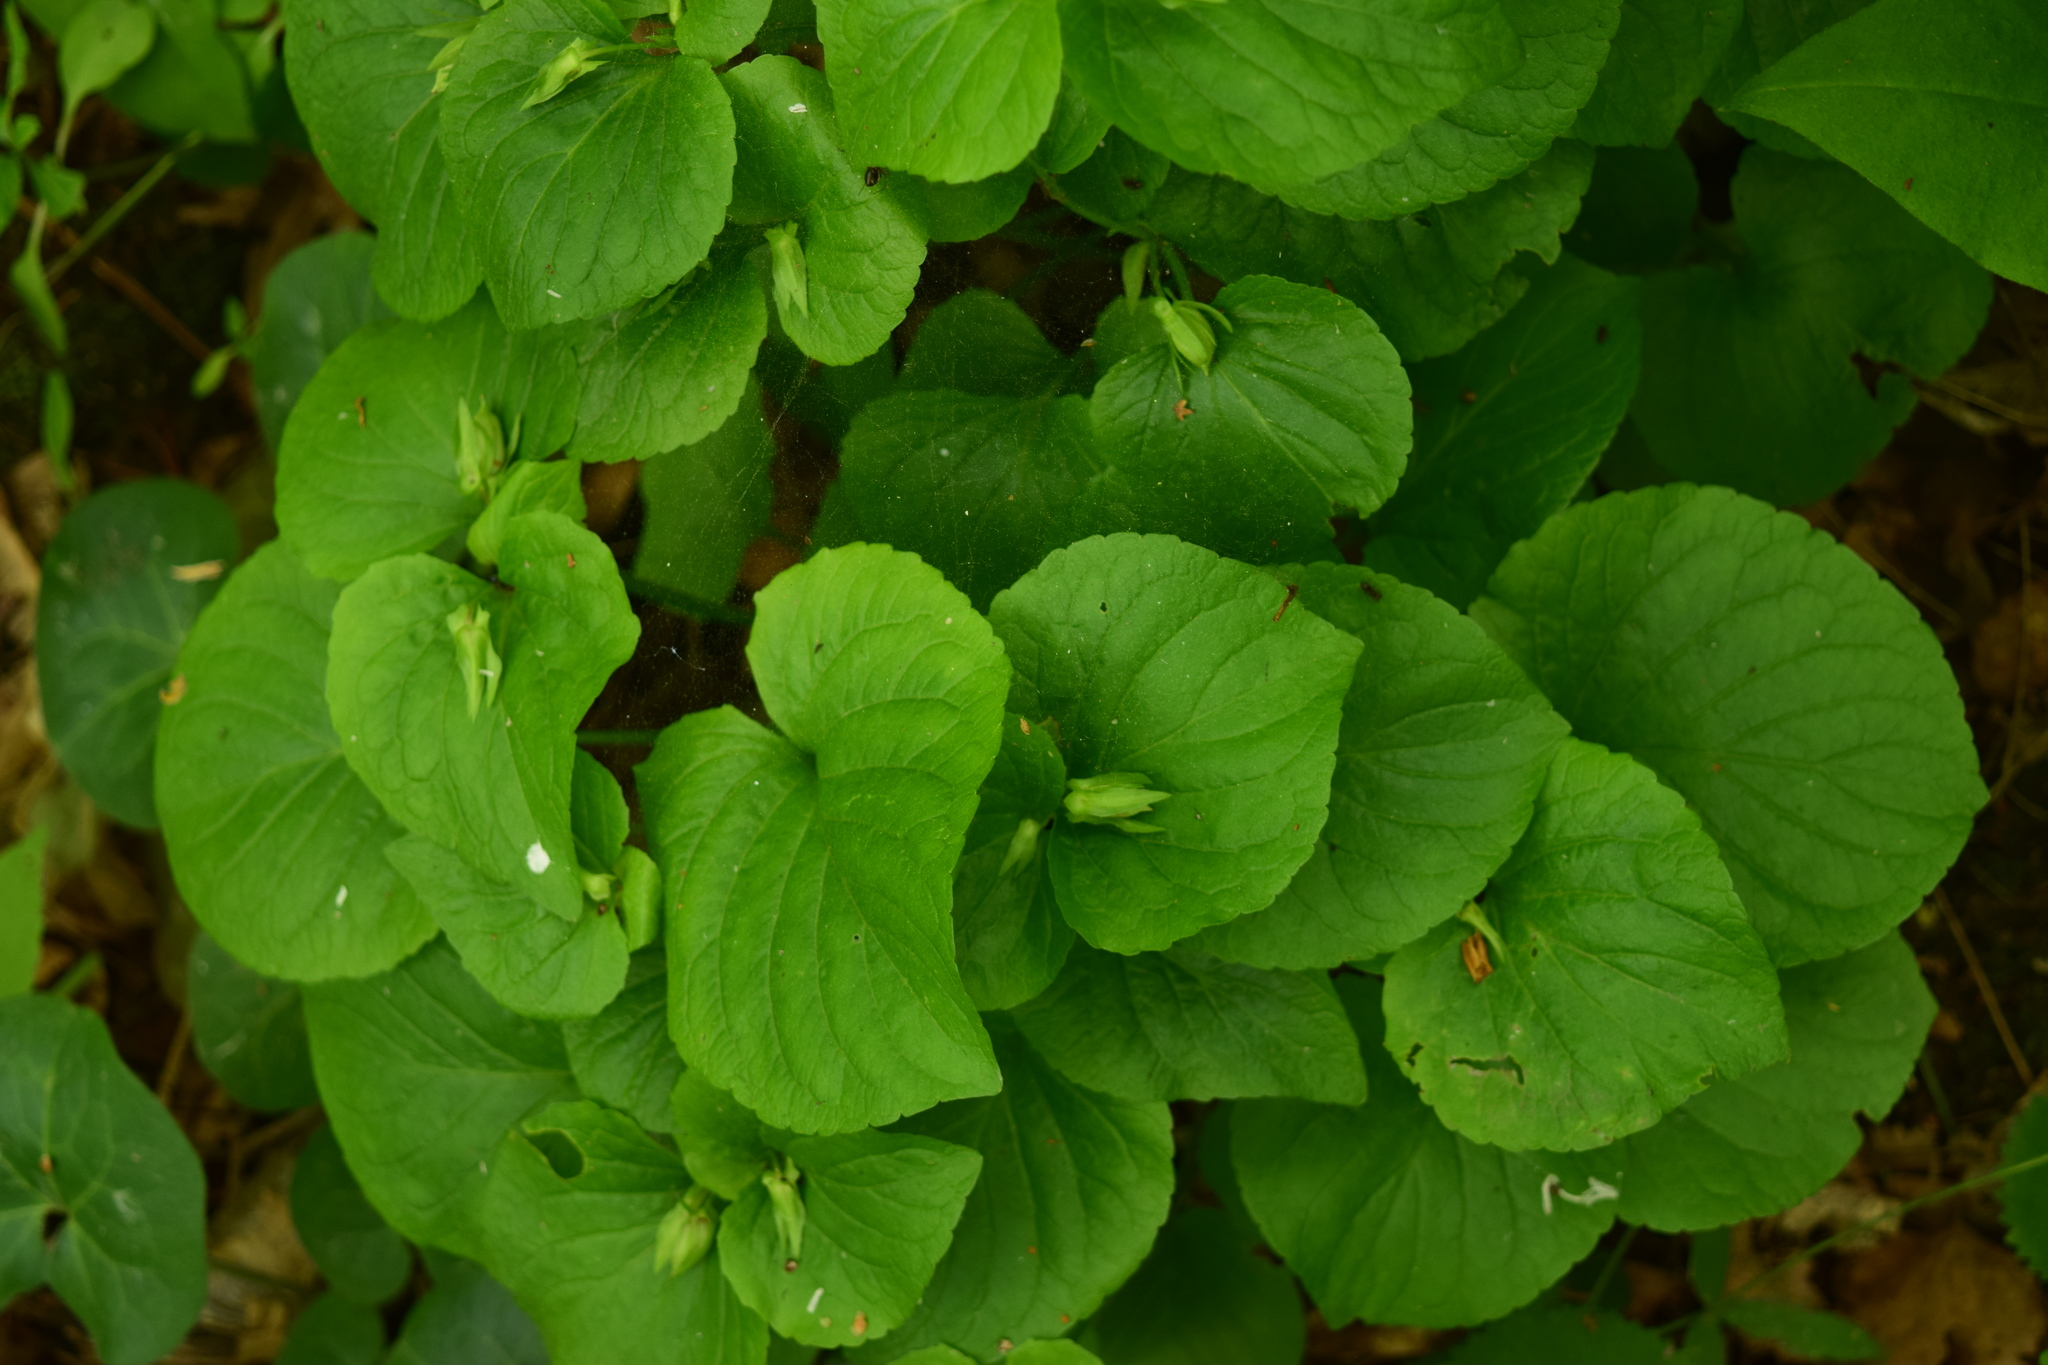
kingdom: Plantae
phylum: Tracheophyta
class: Magnoliopsida
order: Malpighiales
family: Violaceae
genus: Viola
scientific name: Viola mirabilis
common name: Wonder violet
